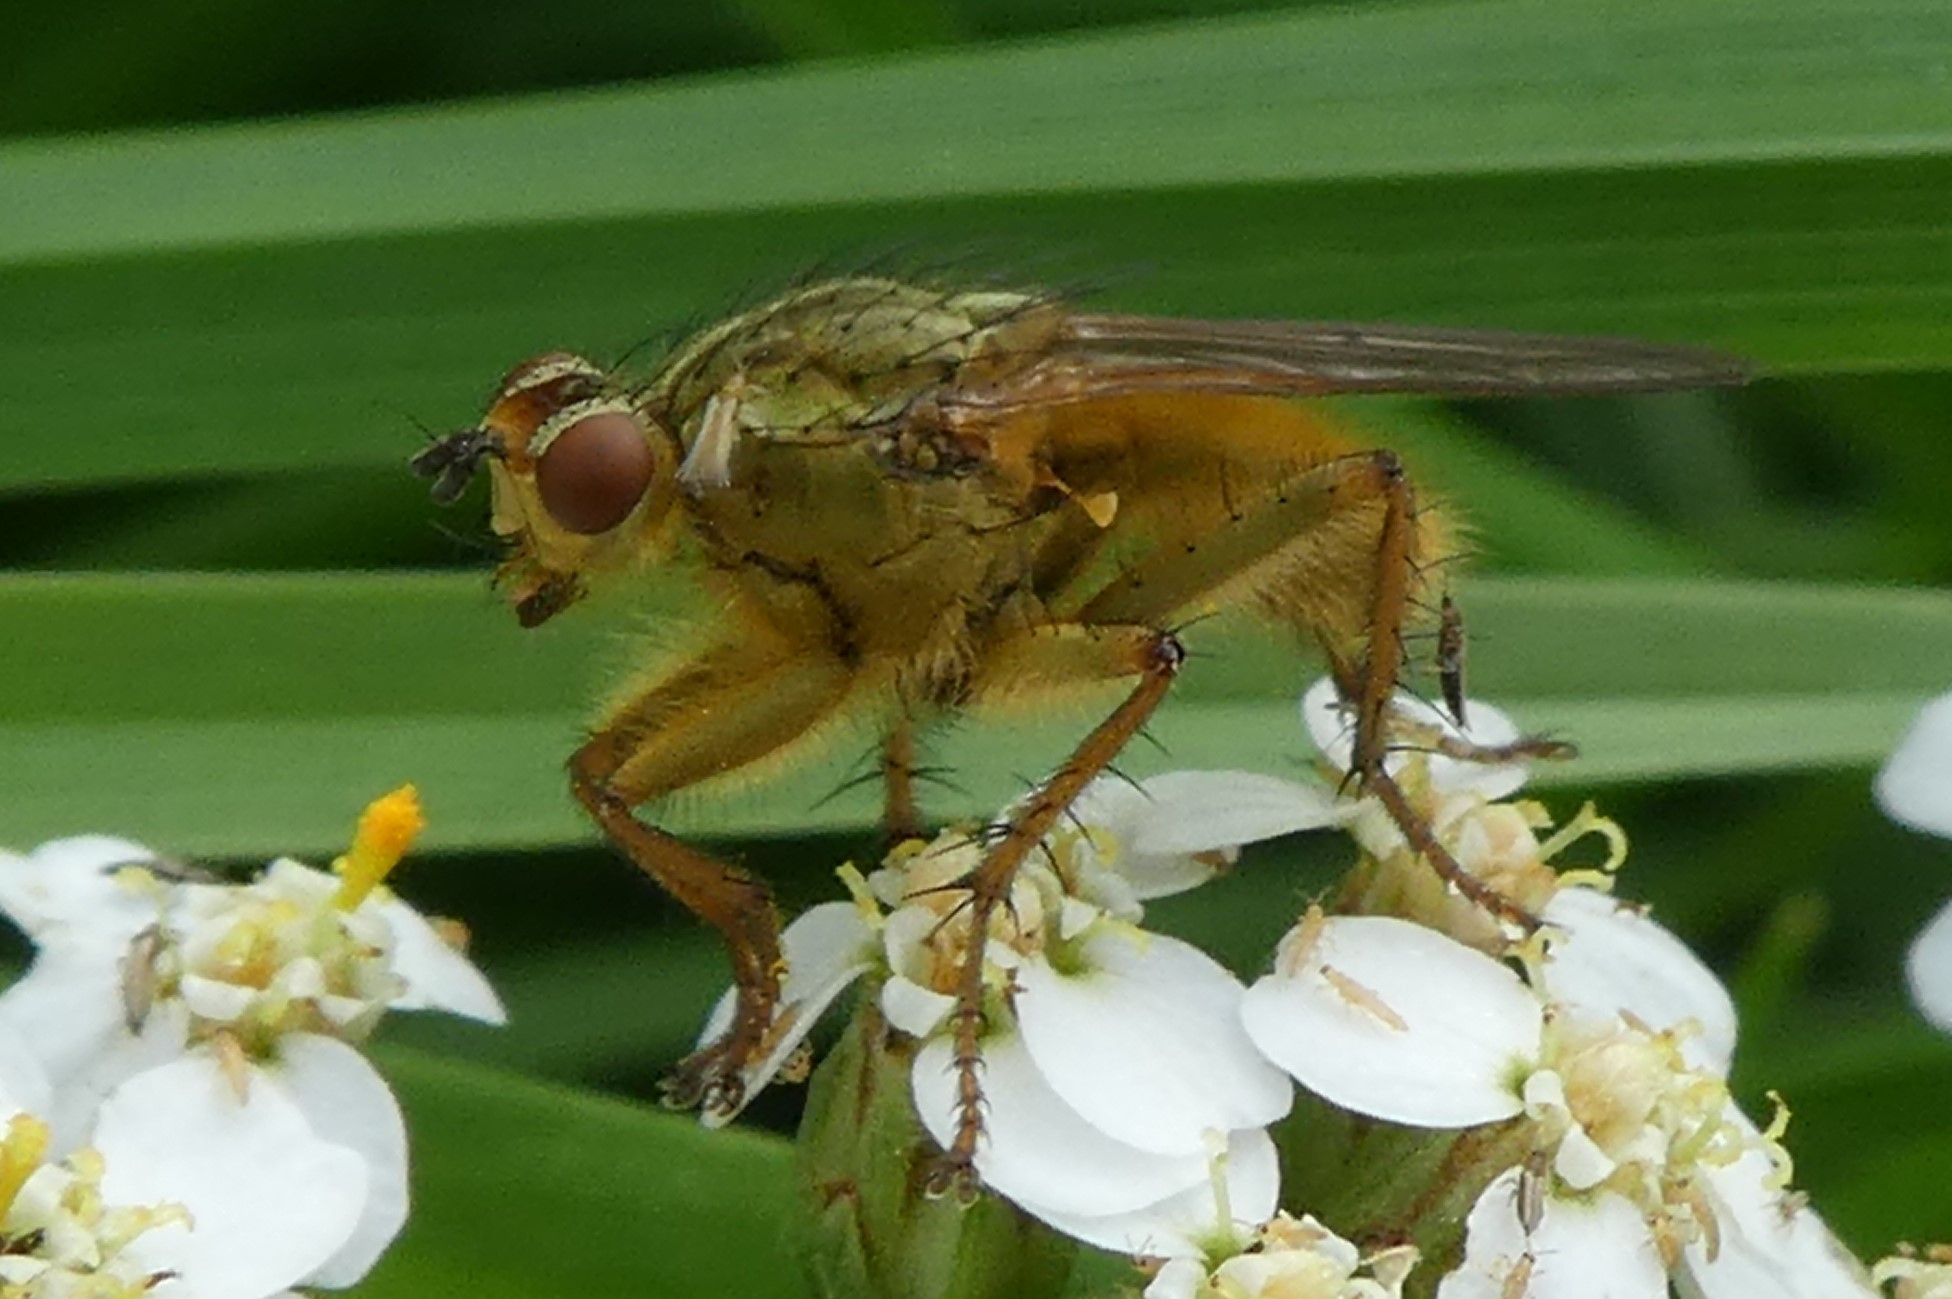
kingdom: Animalia
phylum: Arthropoda
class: Insecta
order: Diptera
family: Scathophagidae
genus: Scathophaga
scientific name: Scathophaga stercoraria
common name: Yellow dung fly
